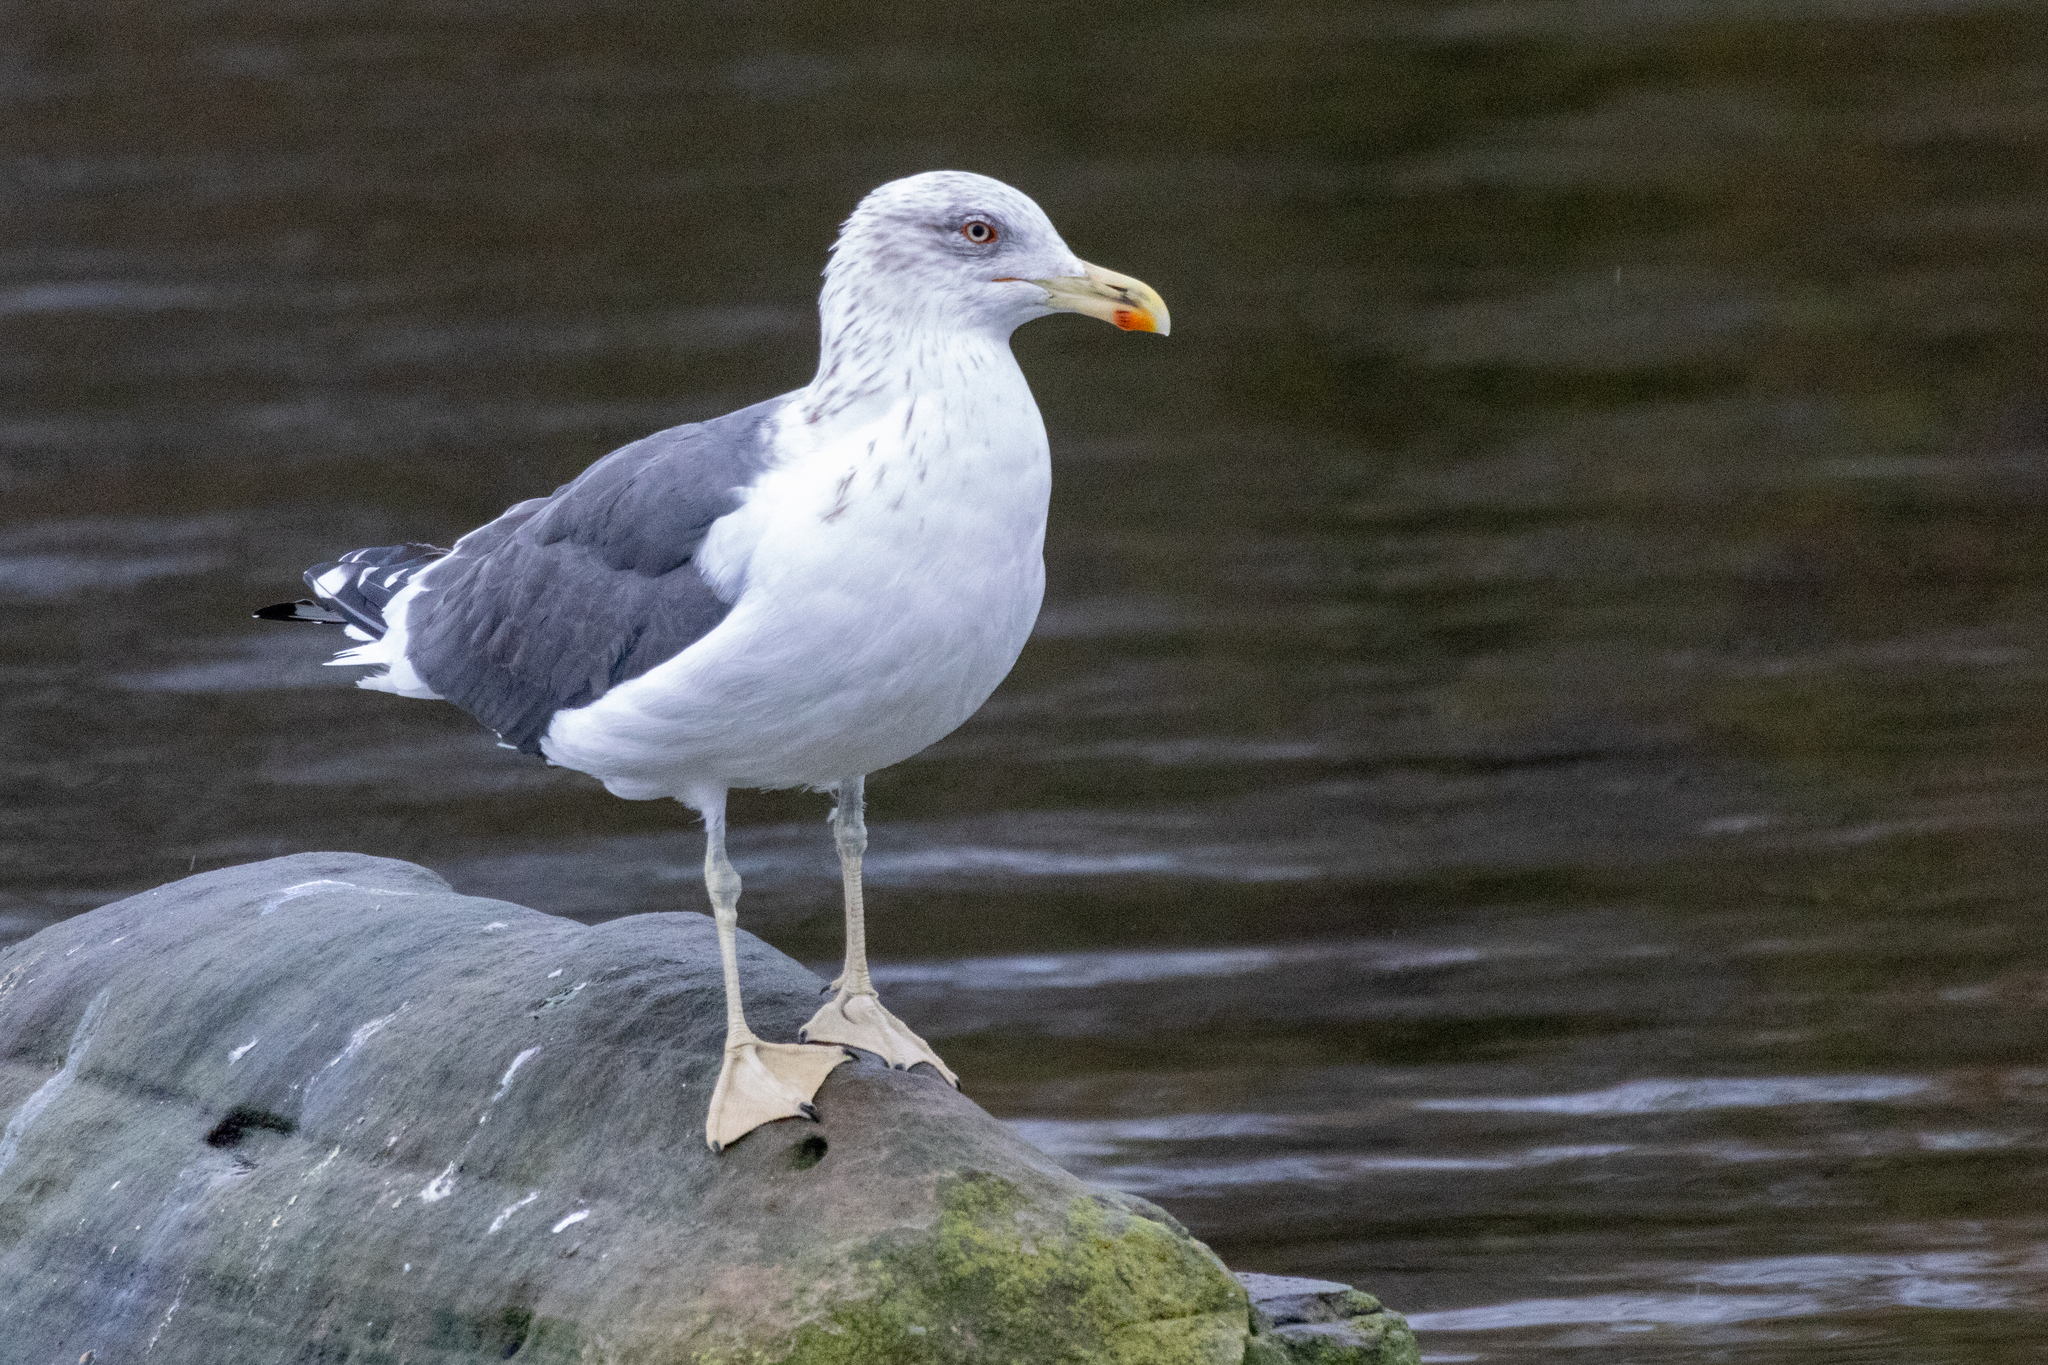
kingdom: Animalia
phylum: Chordata
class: Aves
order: Charadriiformes
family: Laridae
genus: Larus
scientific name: Larus fuscus
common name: Lesser black-backed gull
